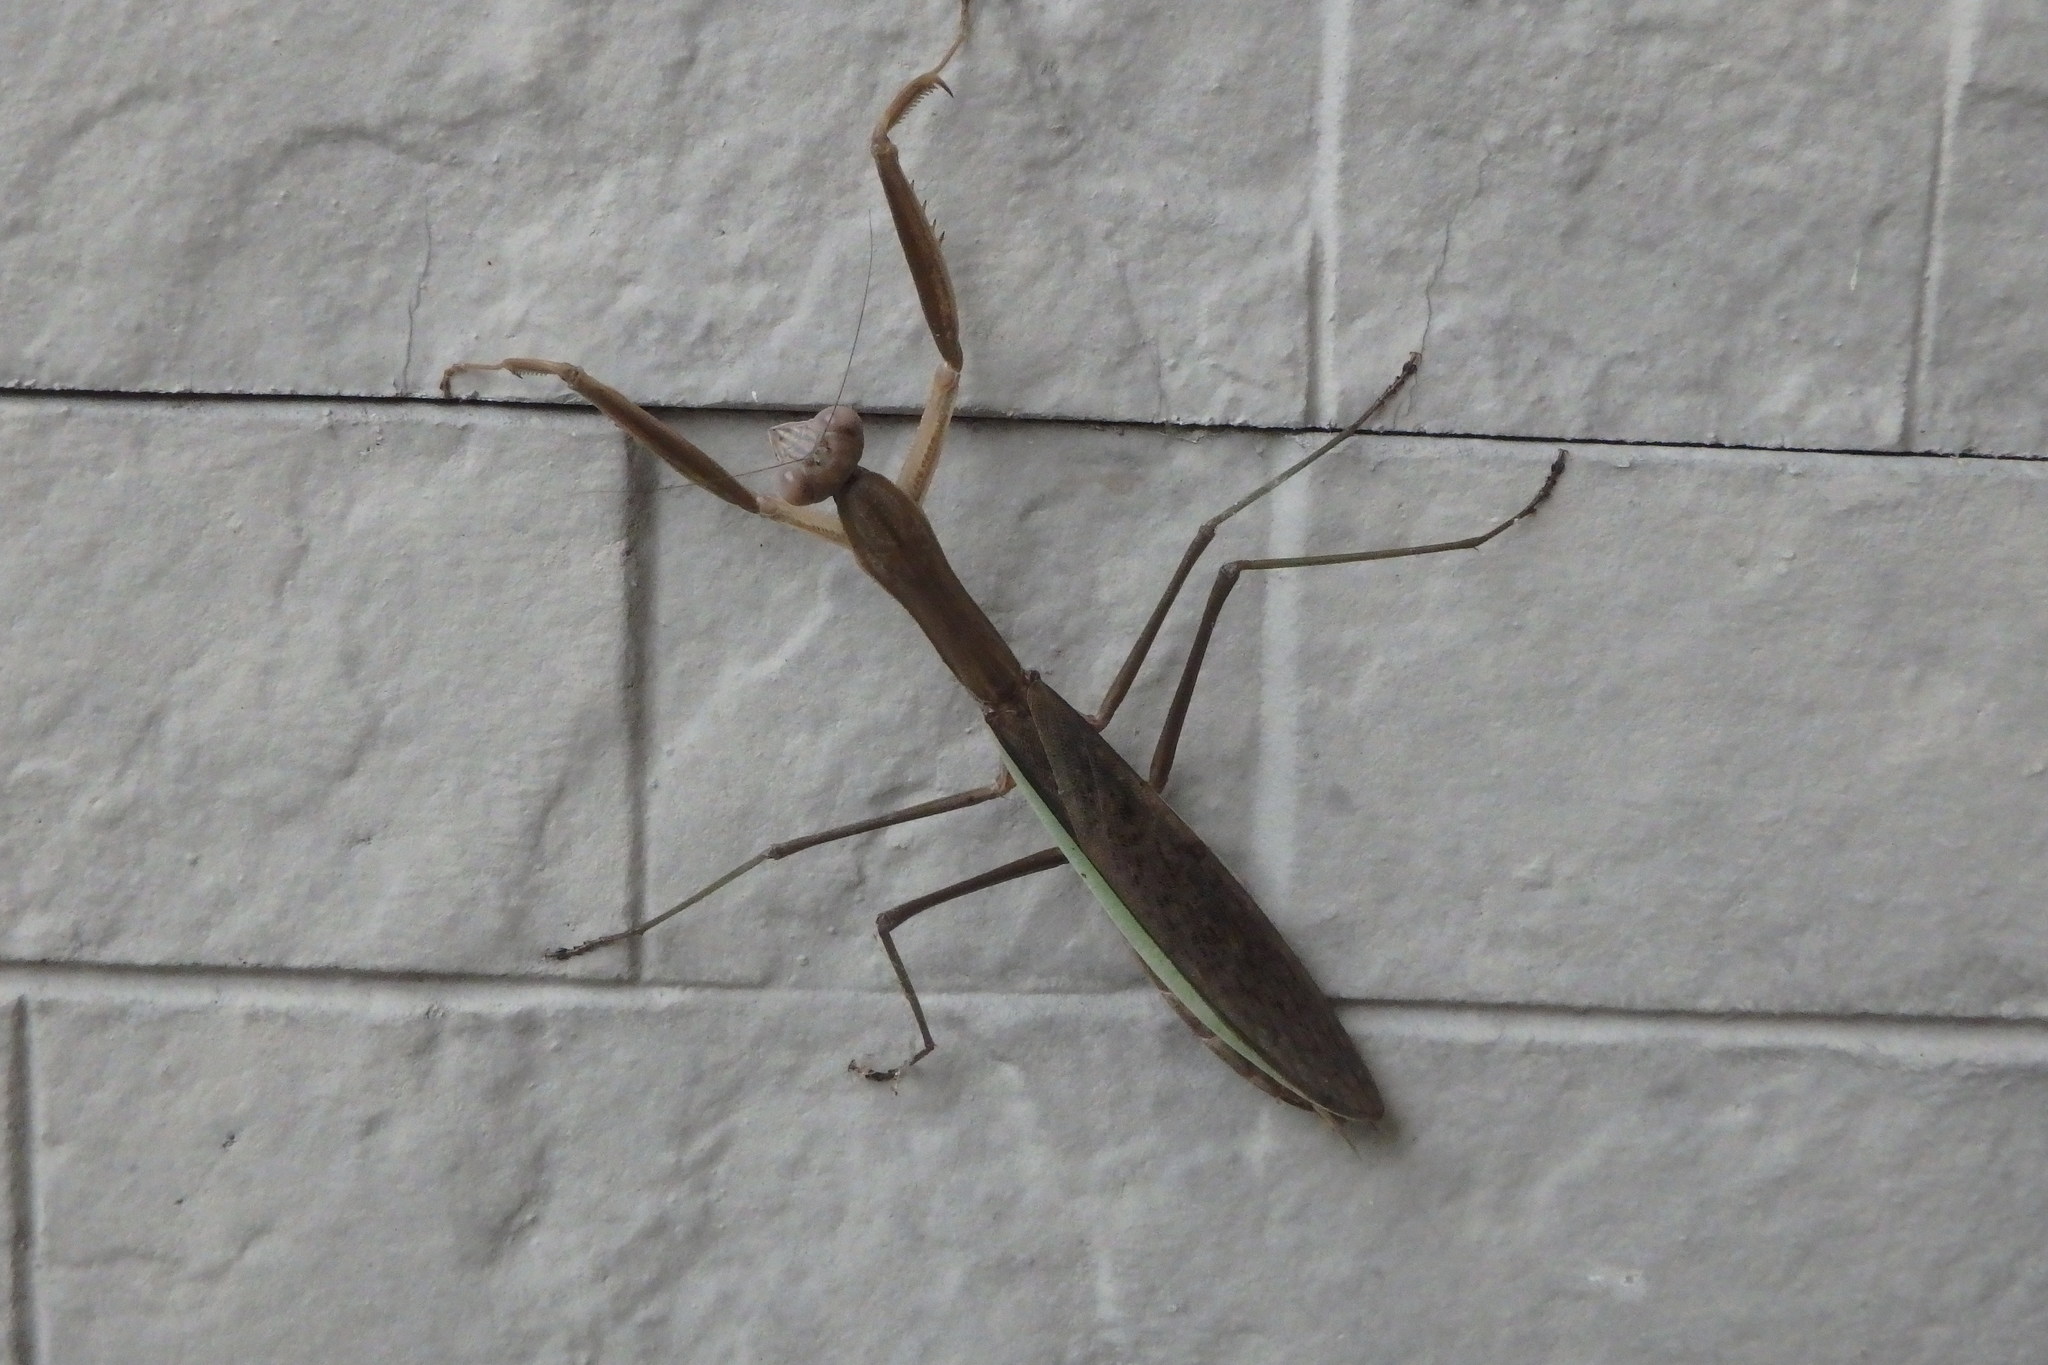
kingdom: Animalia
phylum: Arthropoda
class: Insecta
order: Mantodea
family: Mantidae
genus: Tenodera
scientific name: Tenodera sinensis
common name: Chinese mantis
